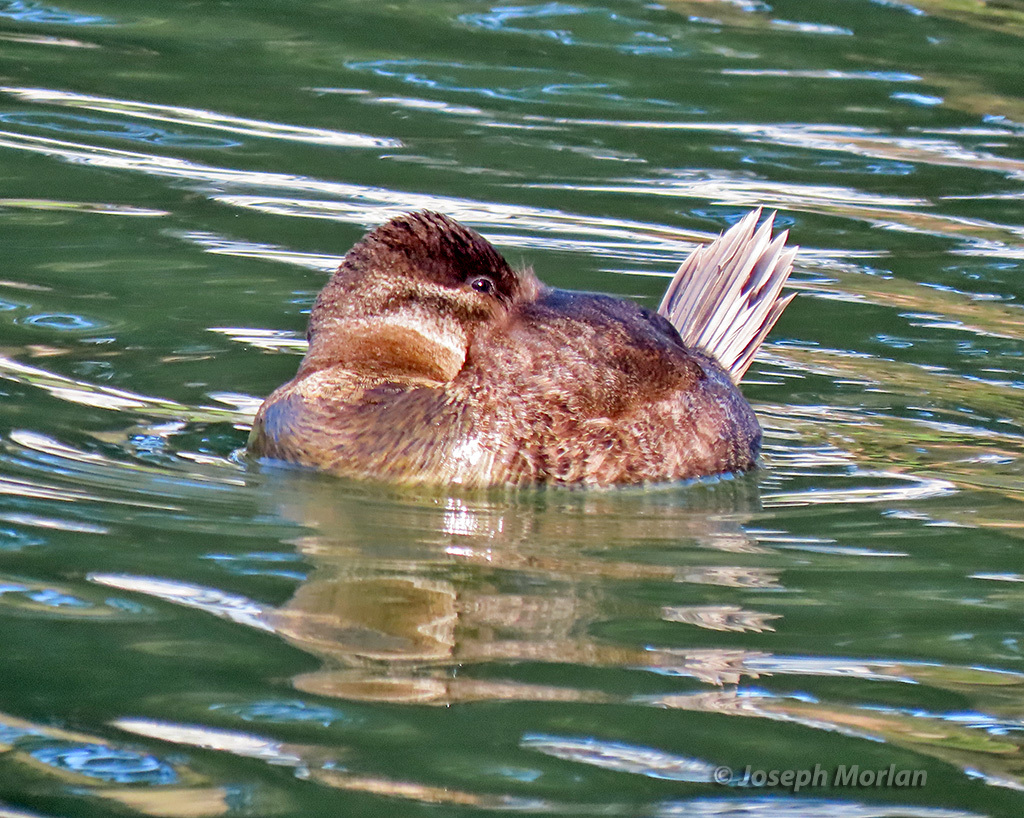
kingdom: Animalia
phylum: Chordata
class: Aves
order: Anseriformes
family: Anatidae
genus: Oxyura
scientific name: Oxyura jamaicensis
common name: Ruddy duck
